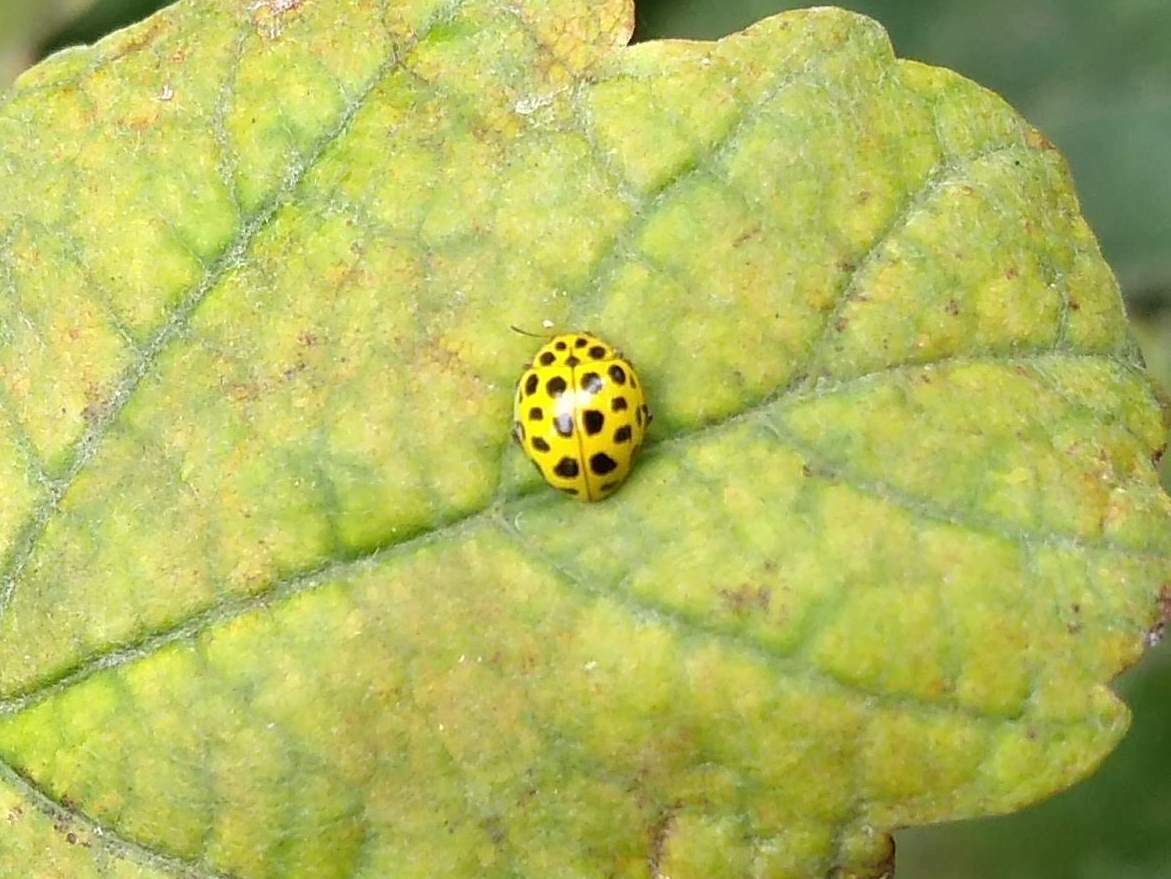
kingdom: Animalia
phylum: Arthropoda
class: Insecta
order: Coleoptera
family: Coccinellidae
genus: Psyllobora
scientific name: Psyllobora vigintiduopunctata
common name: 22-spot ladybird
